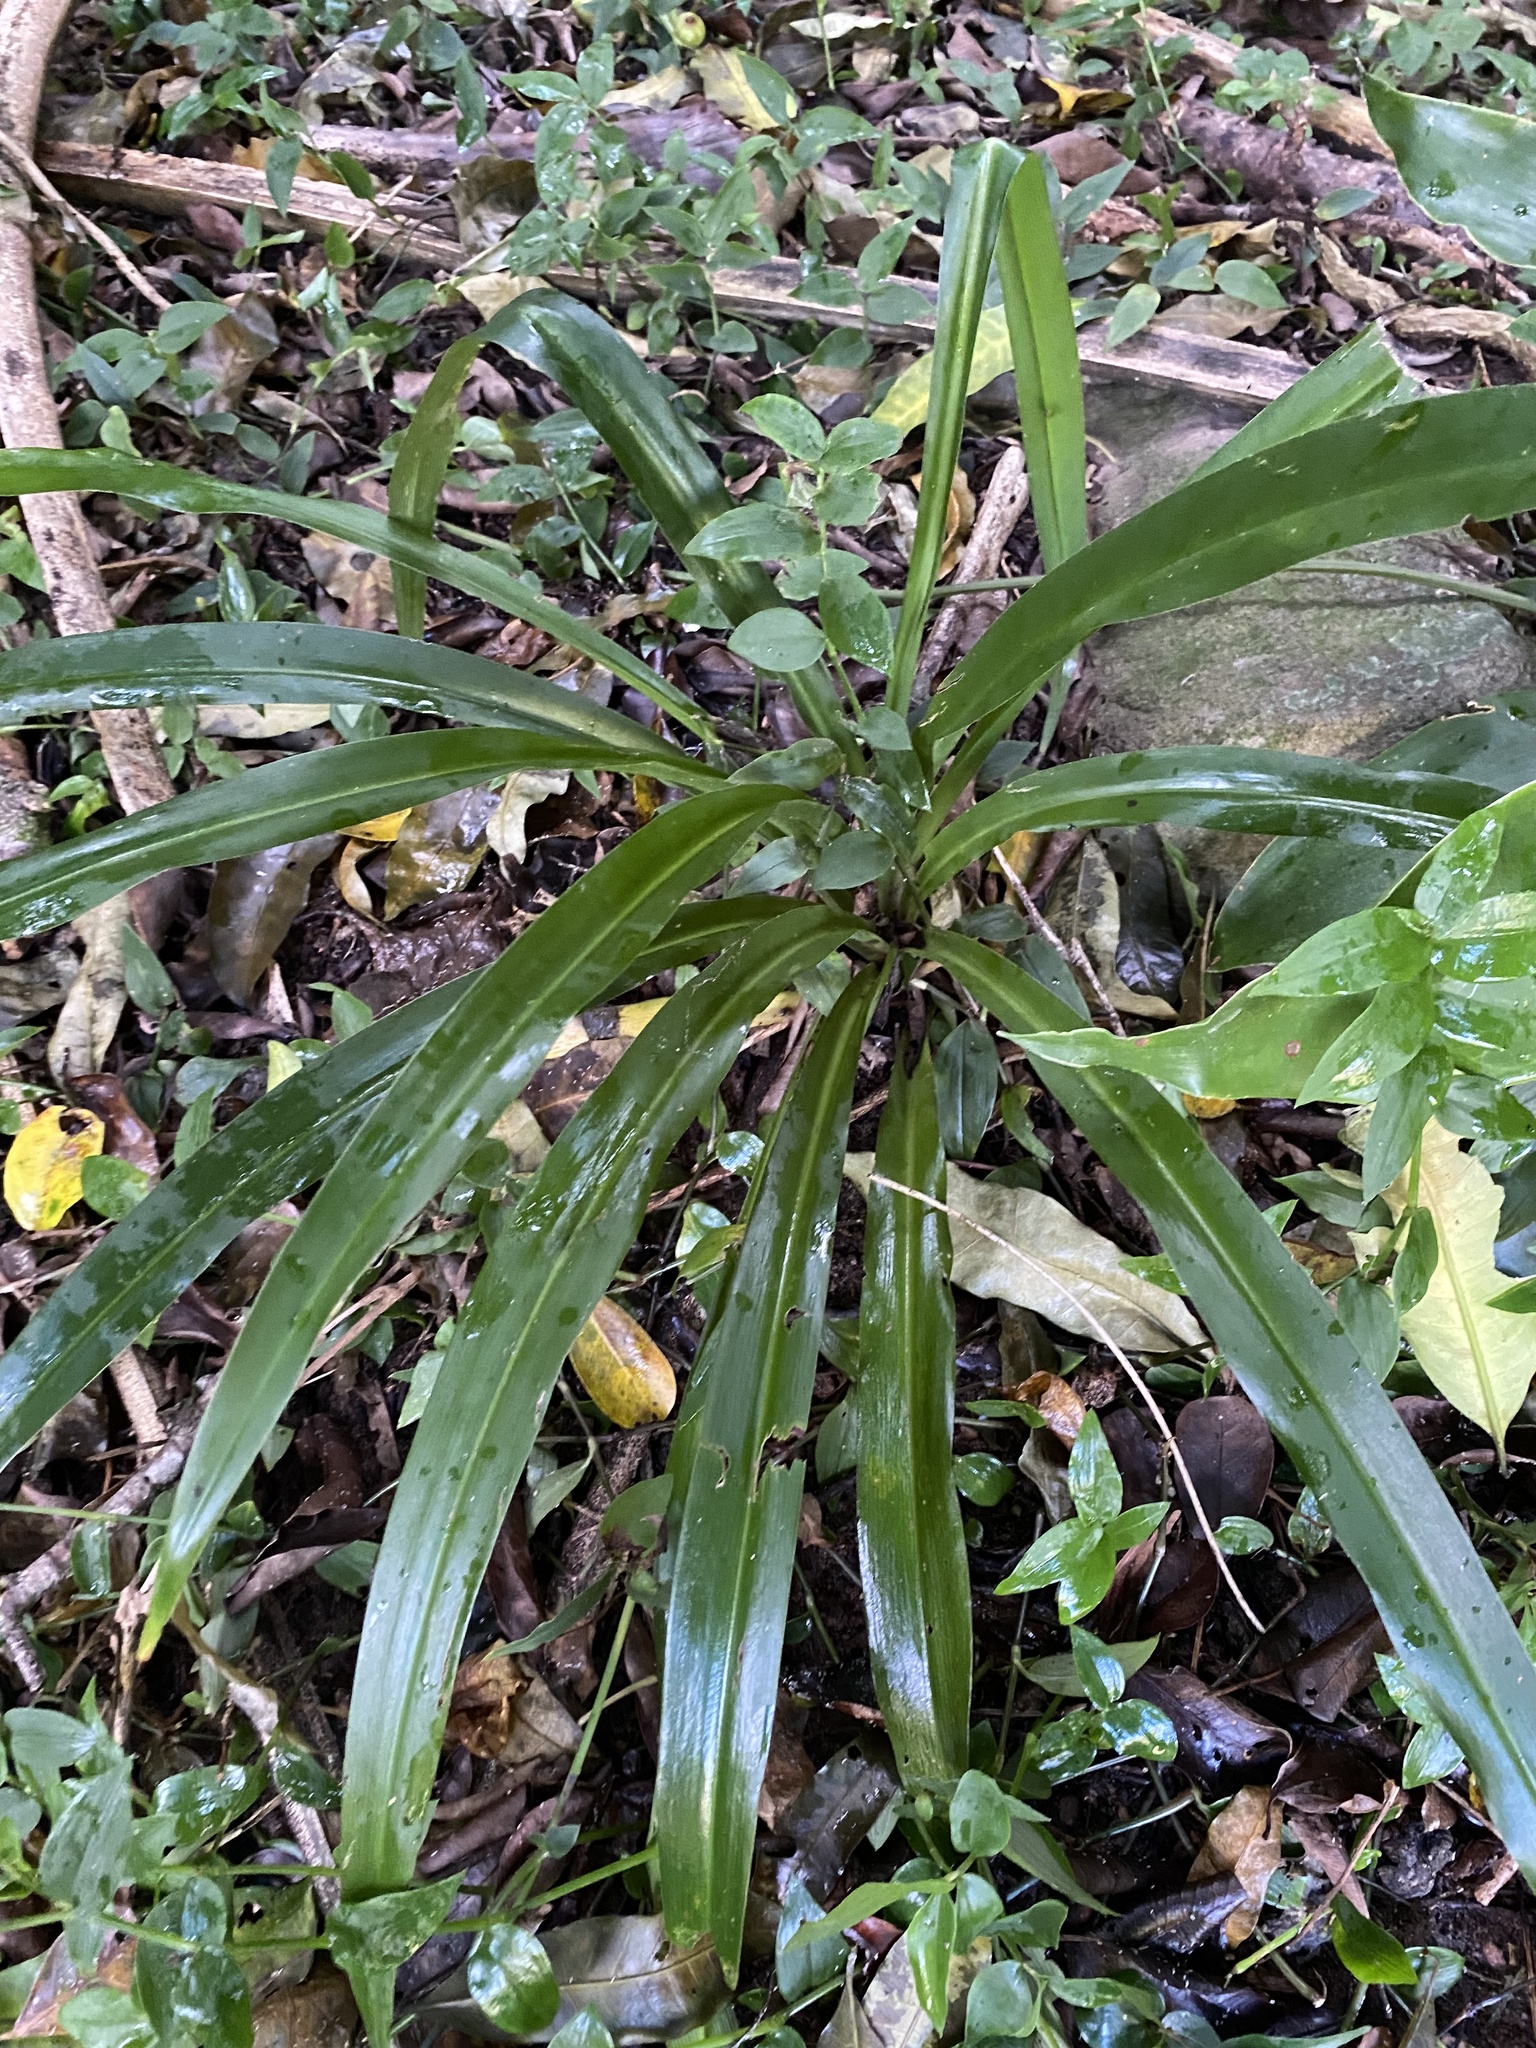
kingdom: Plantae
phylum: Tracheophyta
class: Liliopsida
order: Asparagales
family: Asparagaceae
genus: Chlorophytum
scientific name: Chlorophytum comosum
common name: Spider plant
